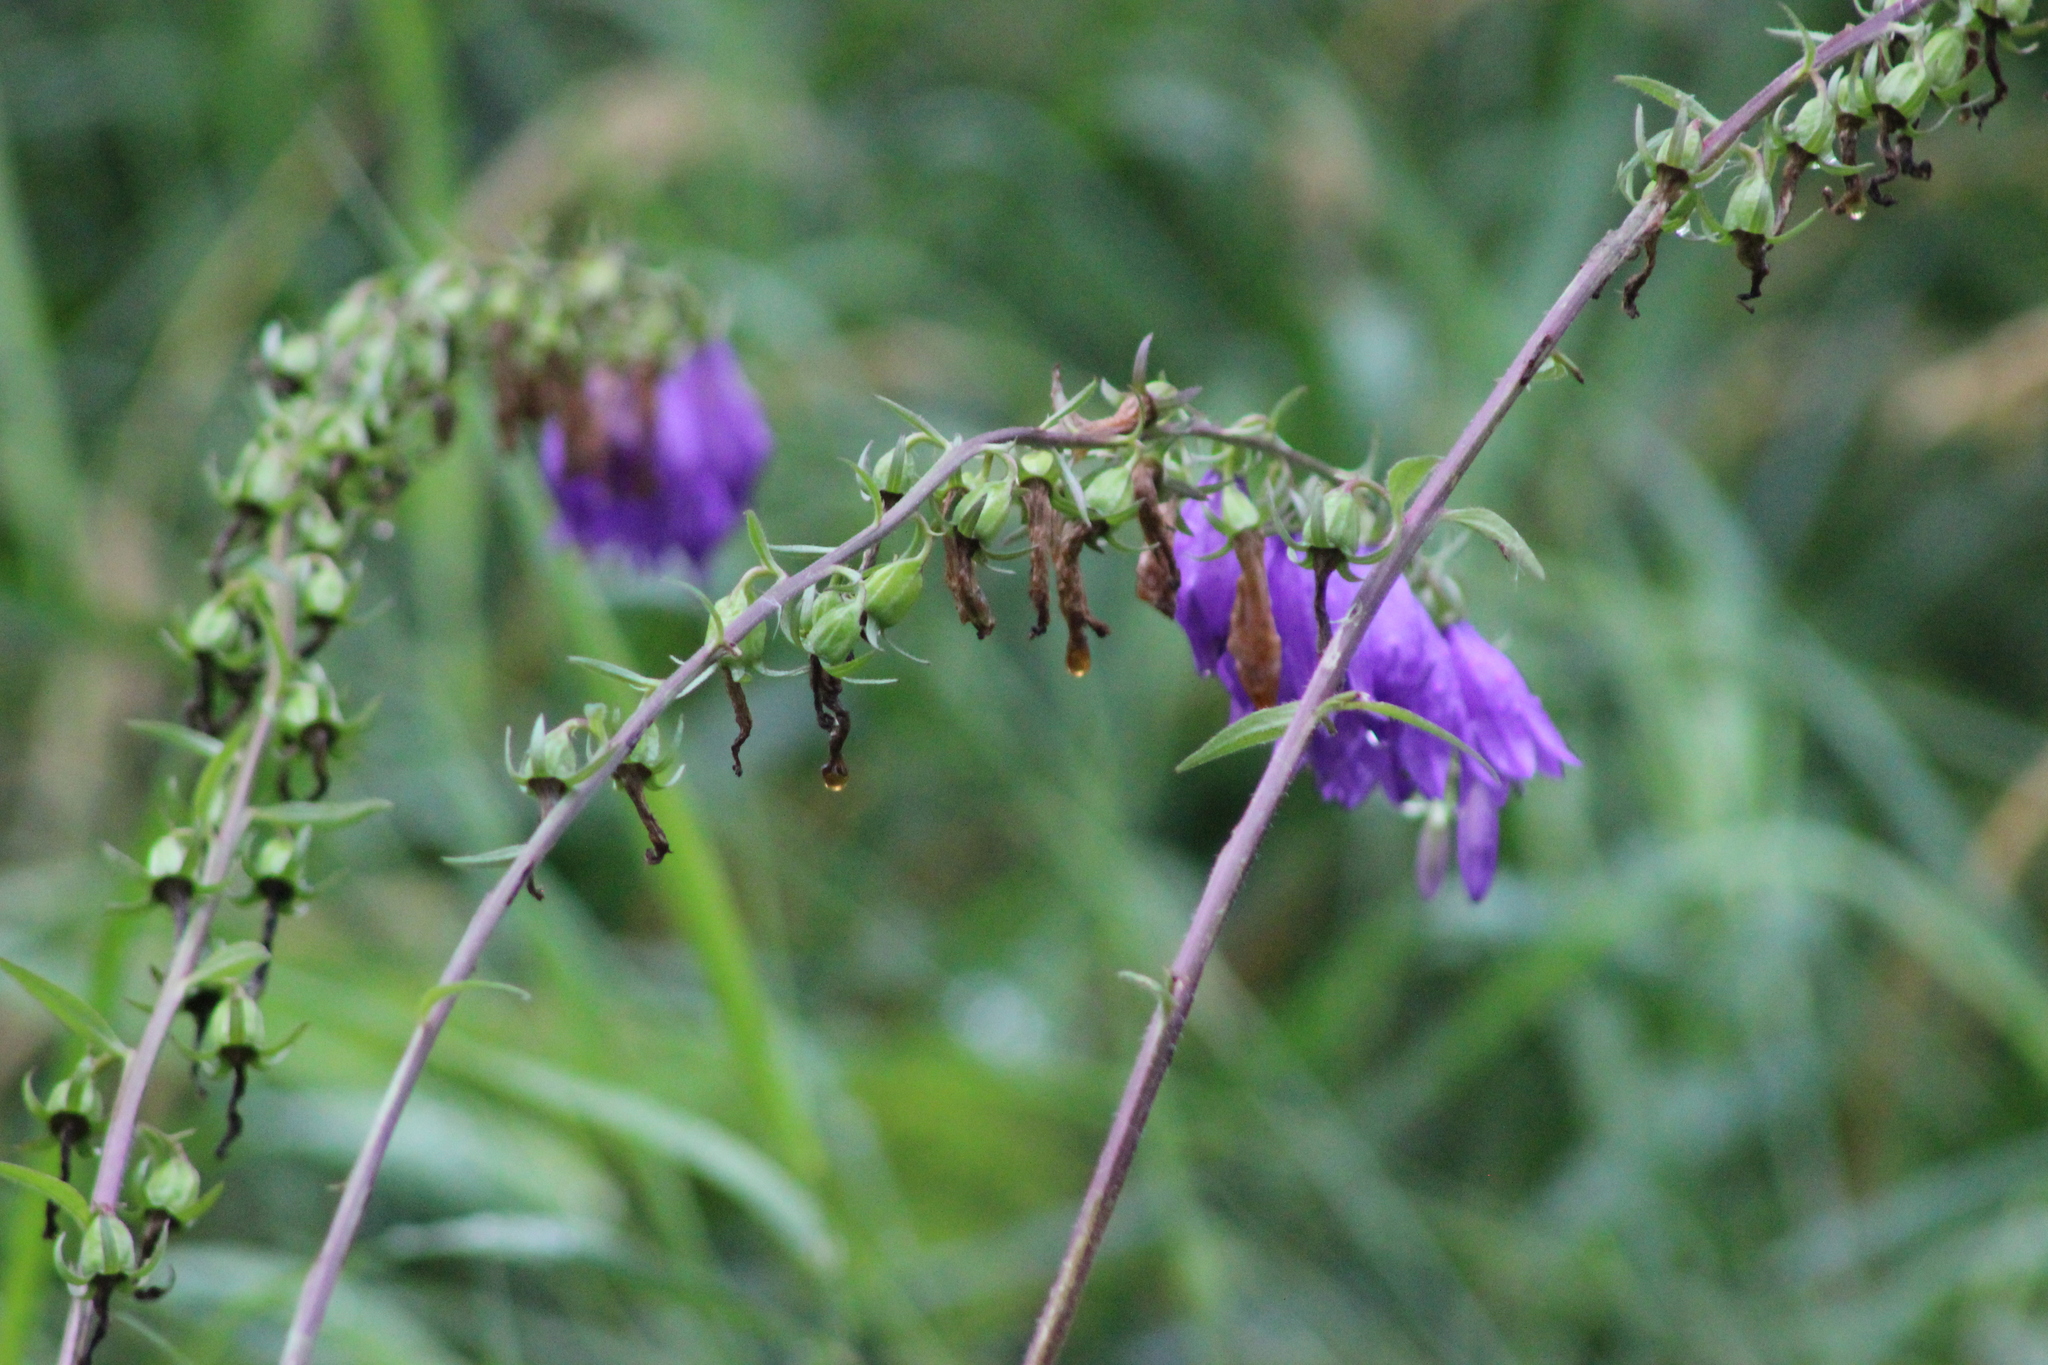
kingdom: Plantae
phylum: Tracheophyta
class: Magnoliopsida
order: Asterales
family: Campanulaceae
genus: Campanula
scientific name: Campanula rapunculoides
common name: Creeping bellflower
